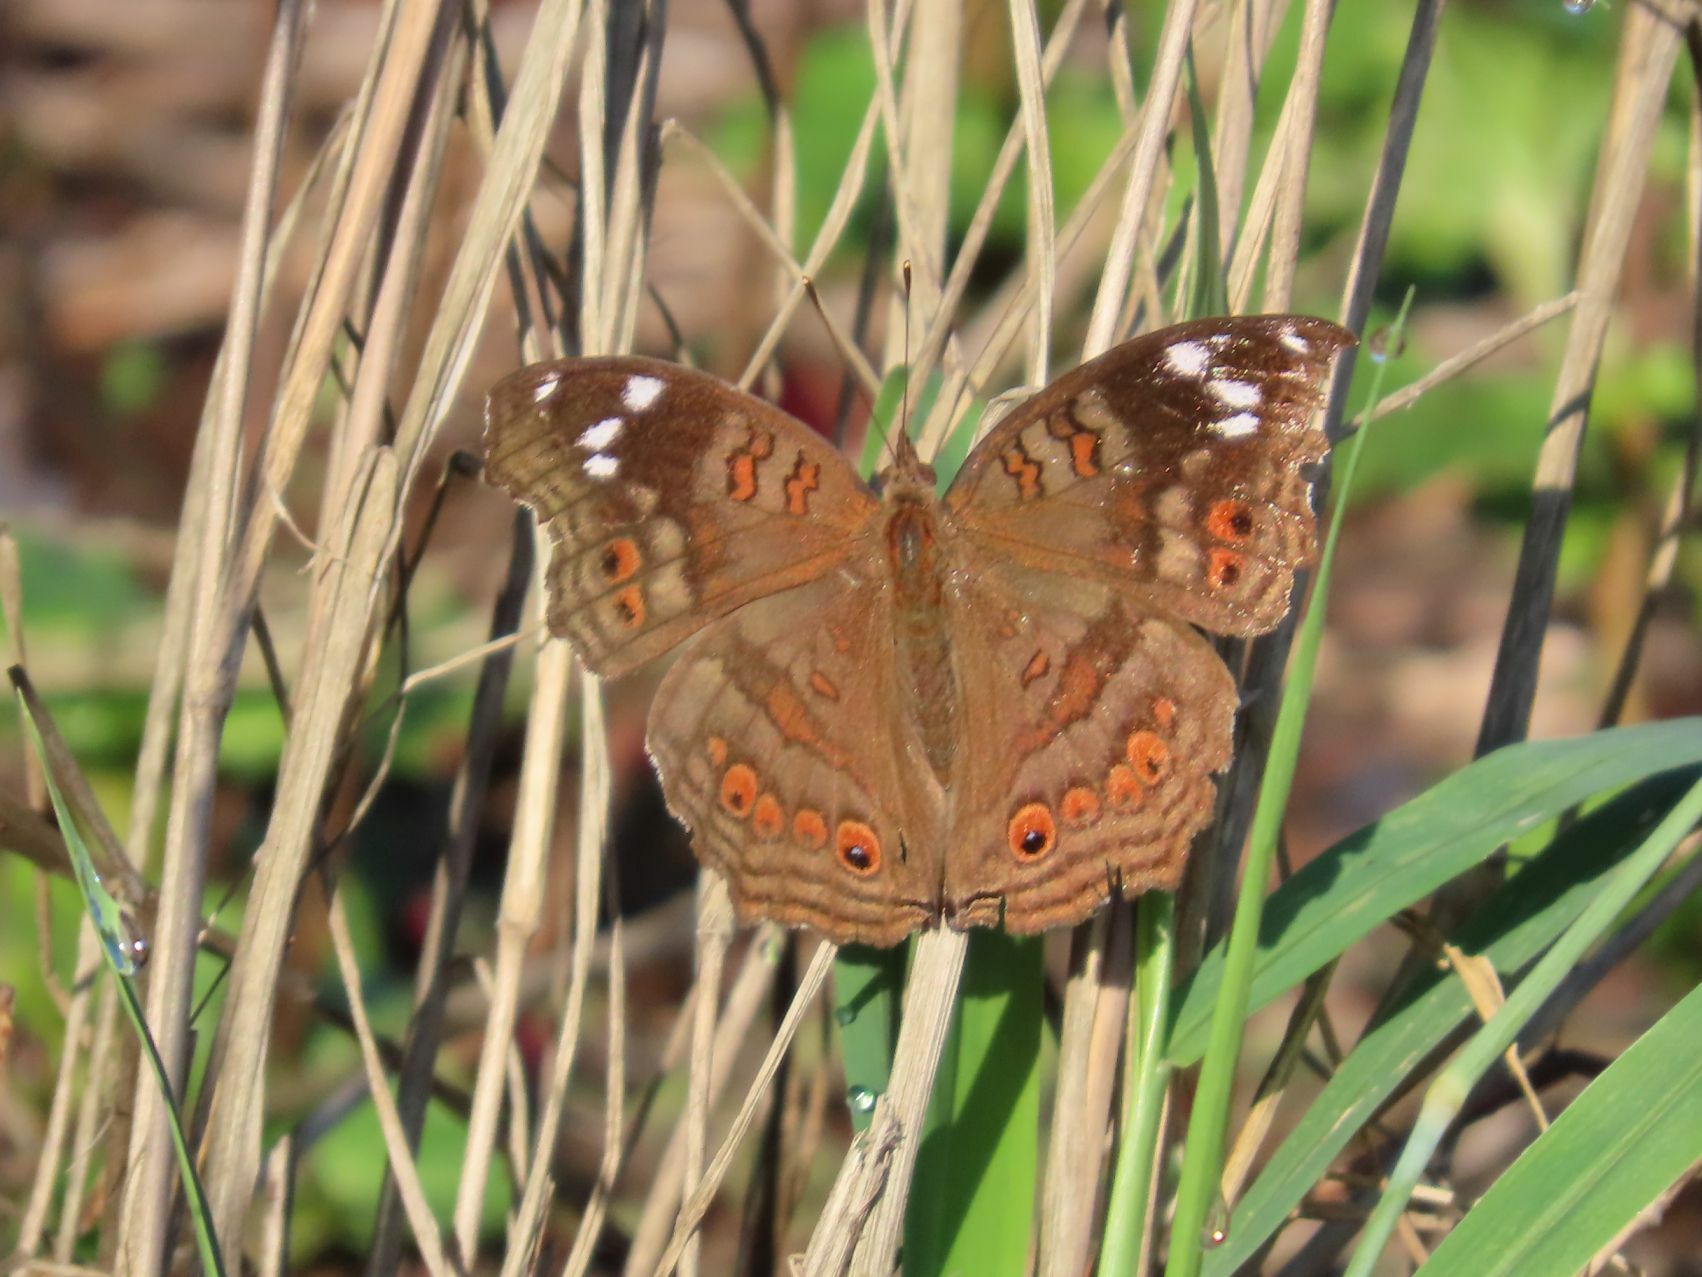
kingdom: Animalia
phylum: Arthropoda
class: Insecta
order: Lepidoptera
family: Nymphalidae
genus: Junonia
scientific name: Junonia natalica
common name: Brown pansy
